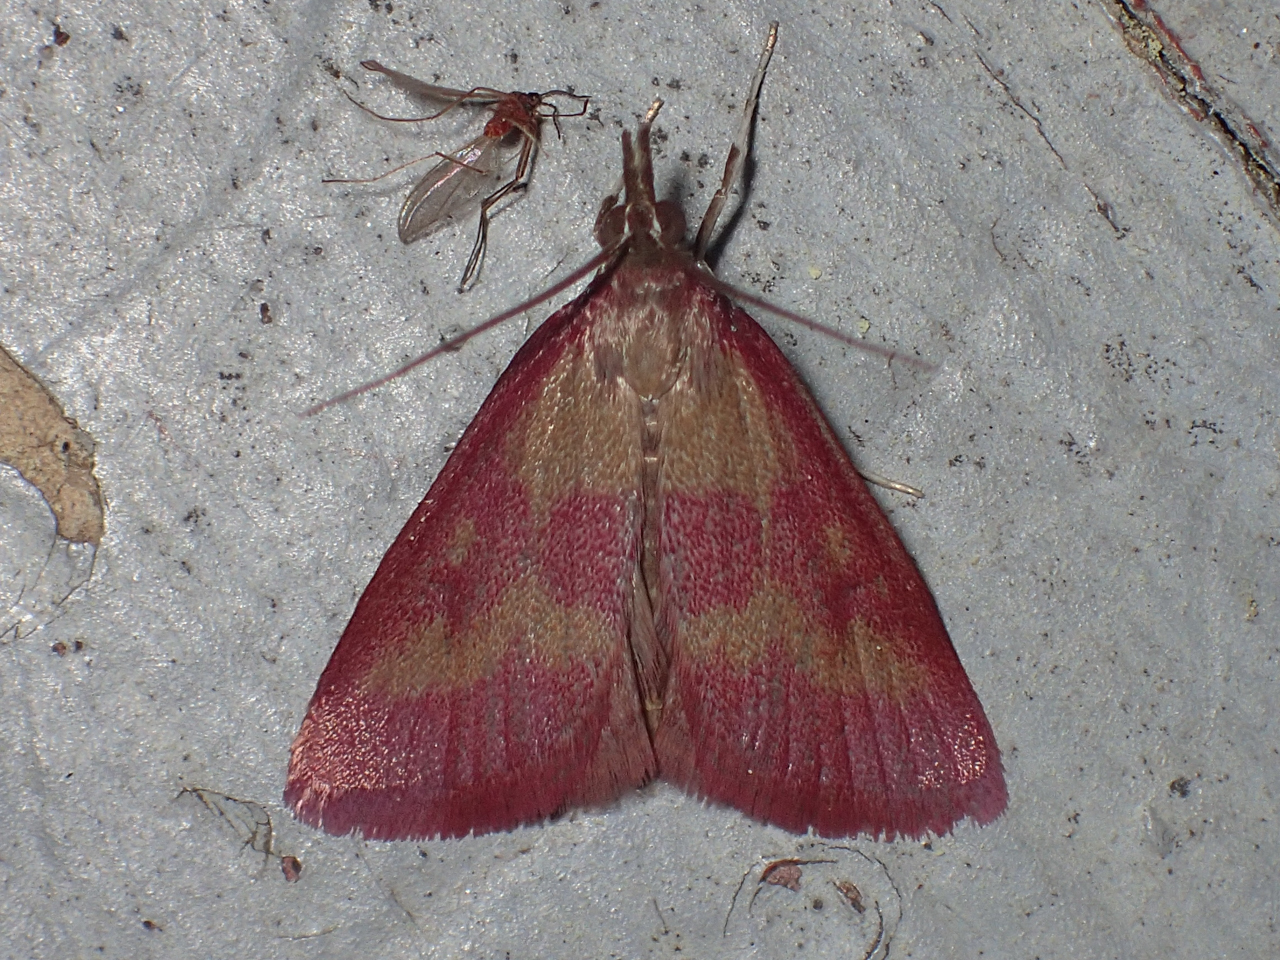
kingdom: Animalia
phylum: Arthropoda
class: Insecta
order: Lepidoptera
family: Crambidae
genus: Pyrausta
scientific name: Pyrausta laticlavia
